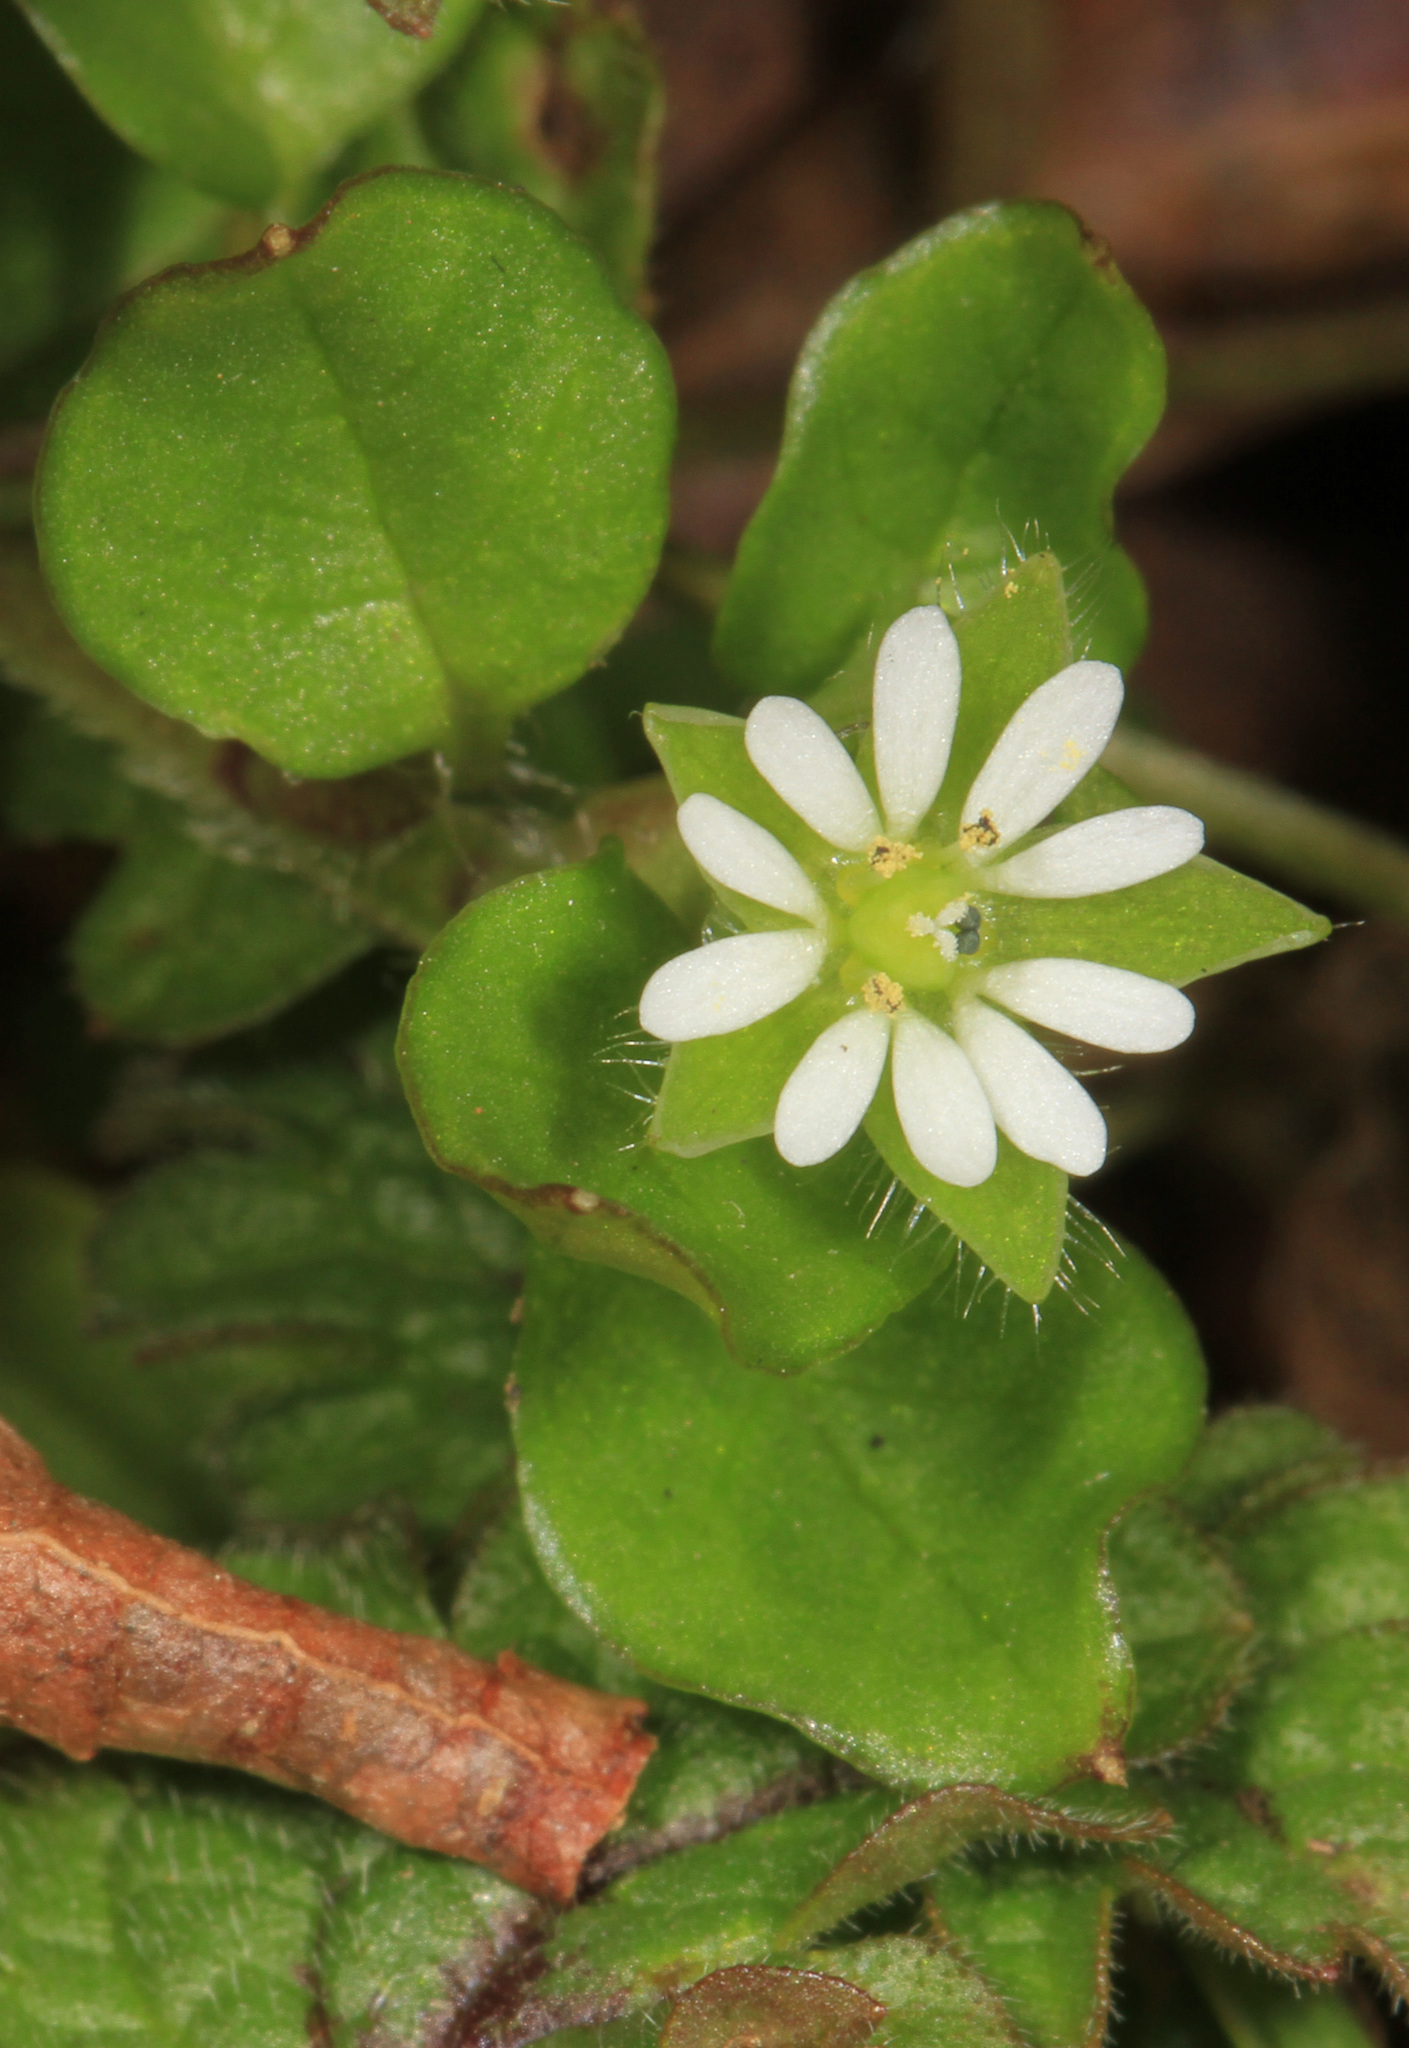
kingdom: Plantae
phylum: Tracheophyta
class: Magnoliopsida
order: Caryophyllales
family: Caryophyllaceae
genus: Stellaria
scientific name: Stellaria media
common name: Common chickweed
